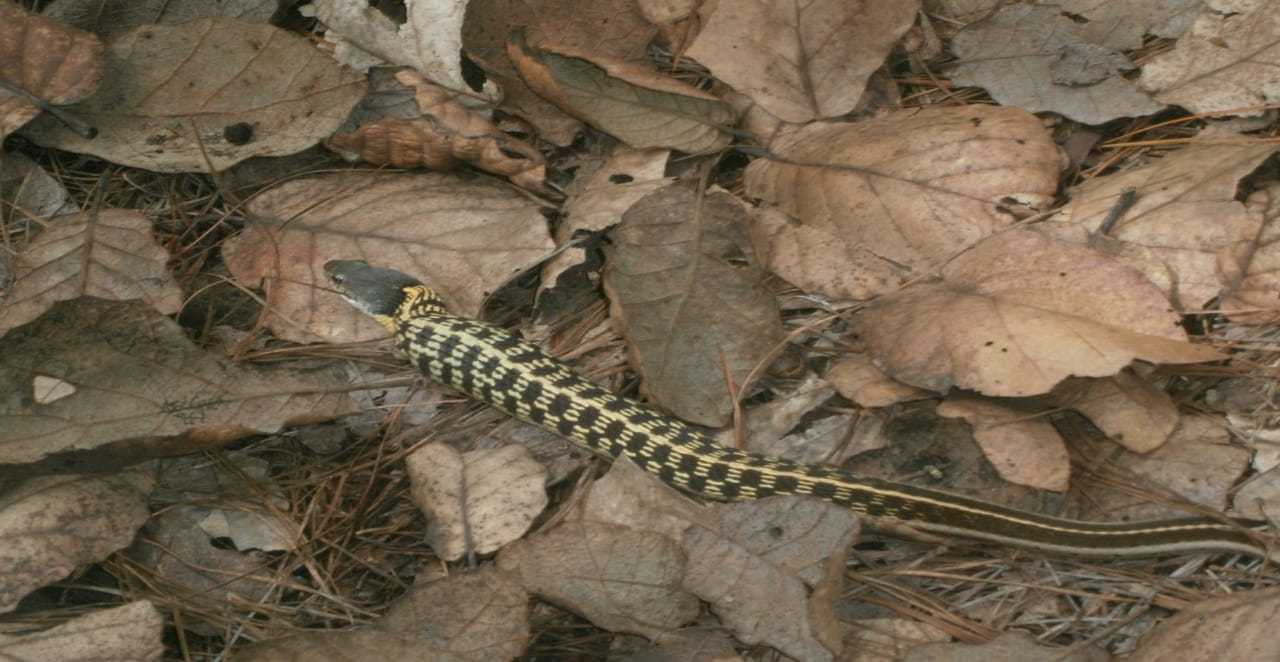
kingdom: Animalia
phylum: Chordata
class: Squamata
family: Colubridae
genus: Thamnophis
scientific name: Thamnophis cyrtopsis
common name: Black-necked gartersnake
